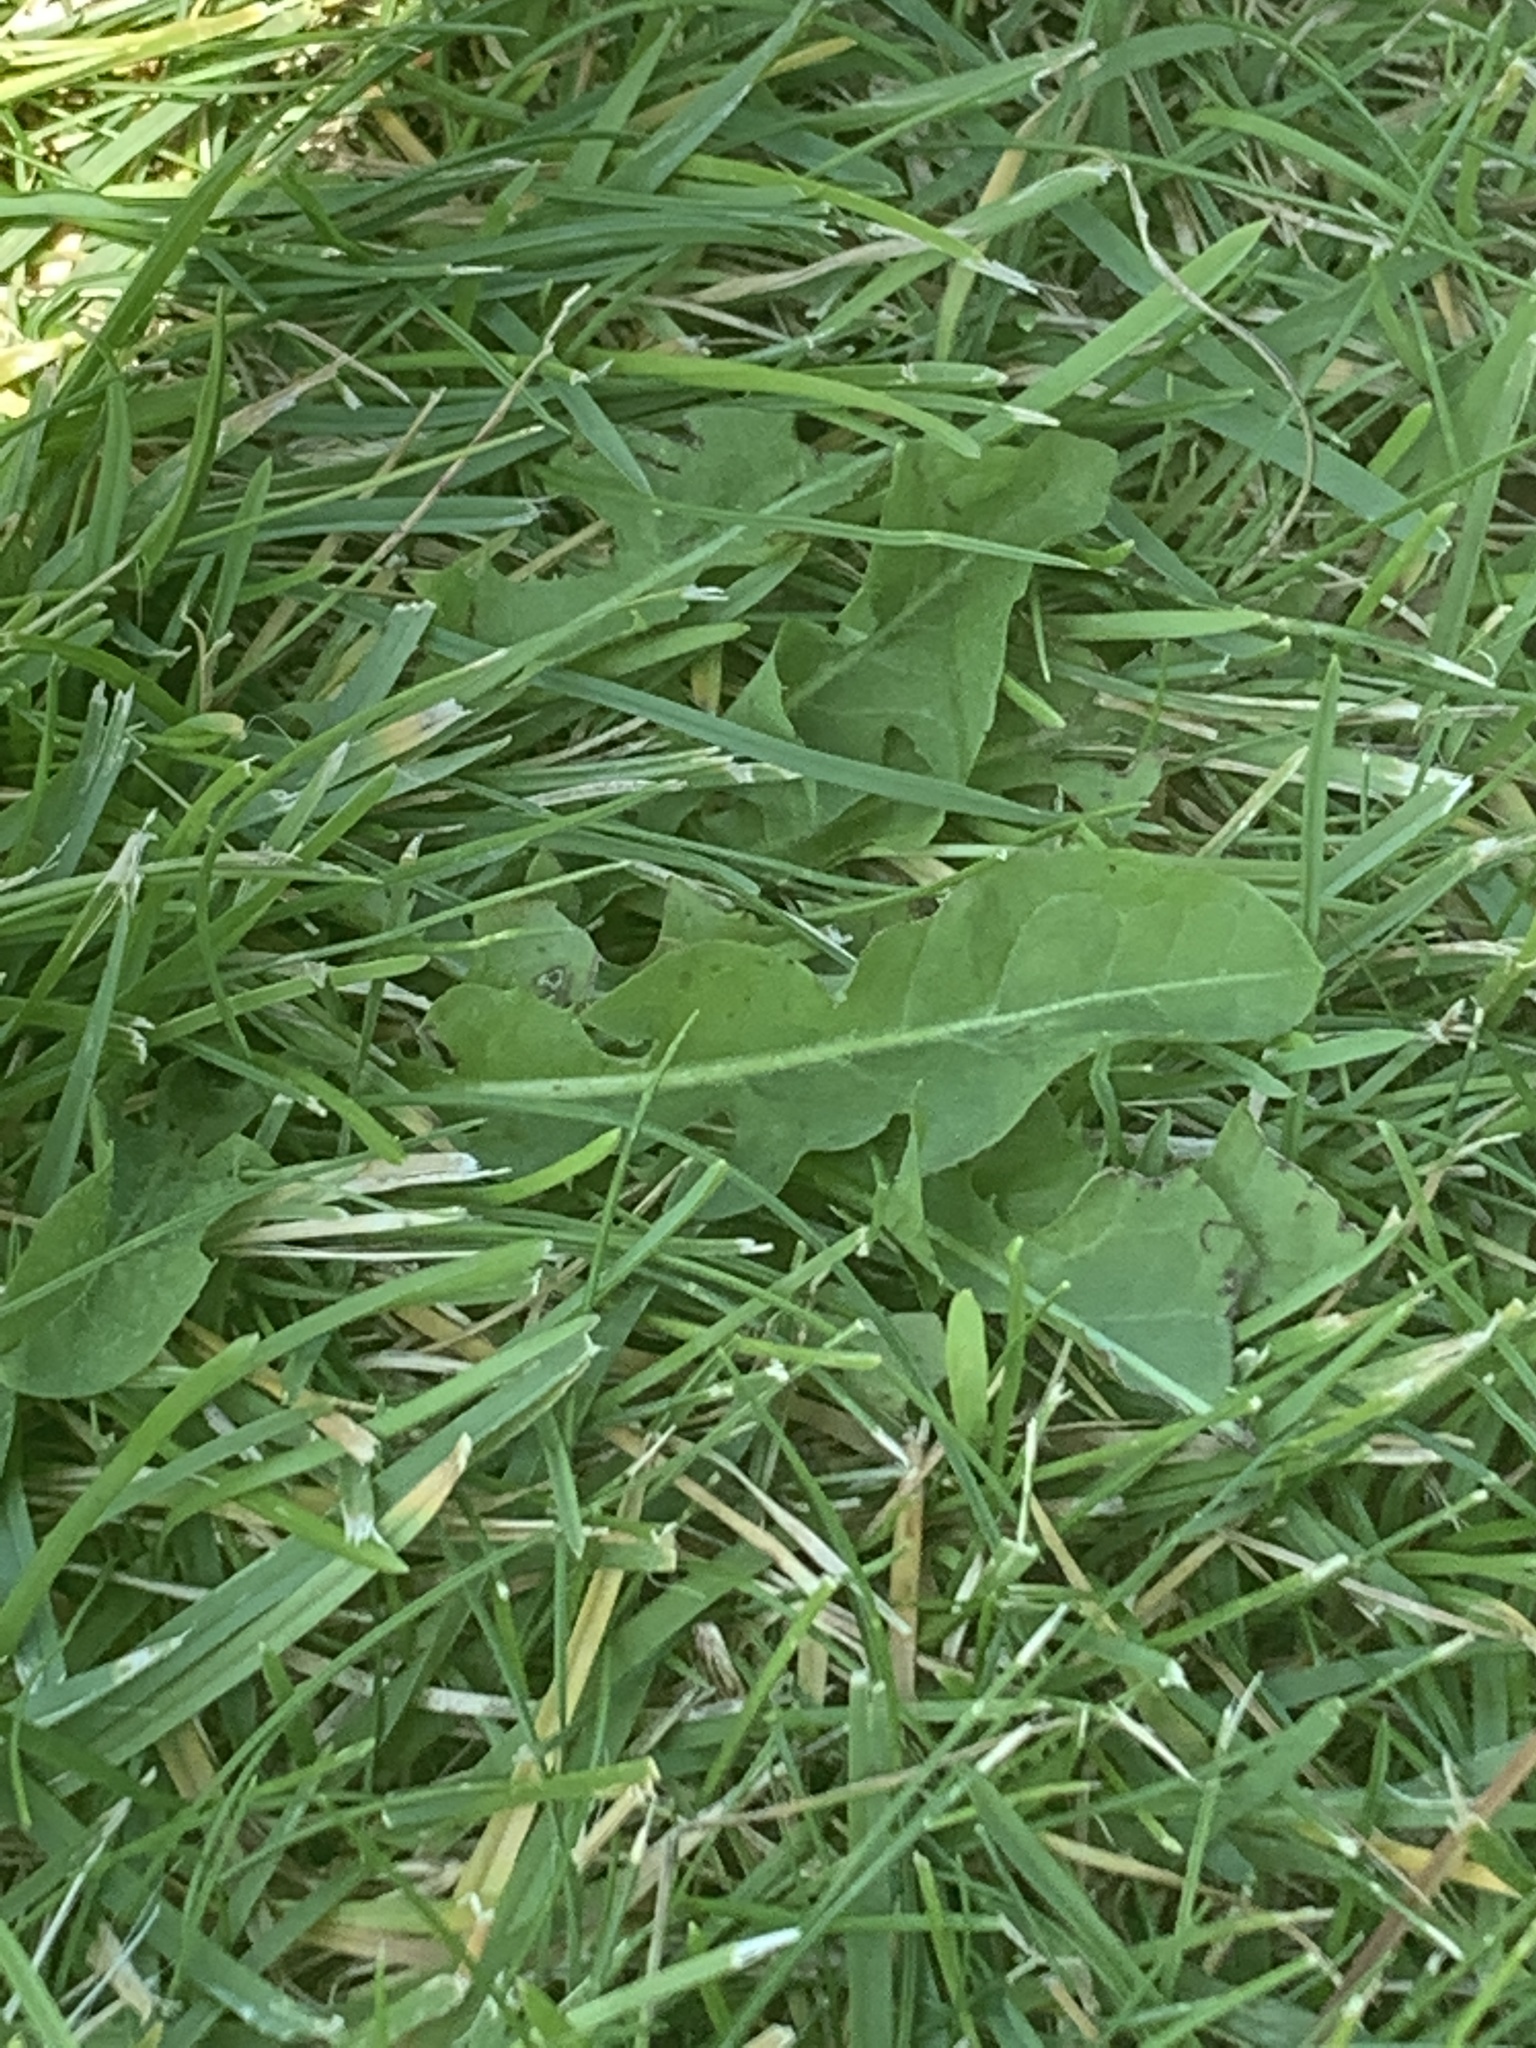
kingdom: Plantae
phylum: Tracheophyta
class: Magnoliopsida
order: Asterales
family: Asteraceae
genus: Taraxacum
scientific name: Taraxacum officinale
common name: Common dandelion
